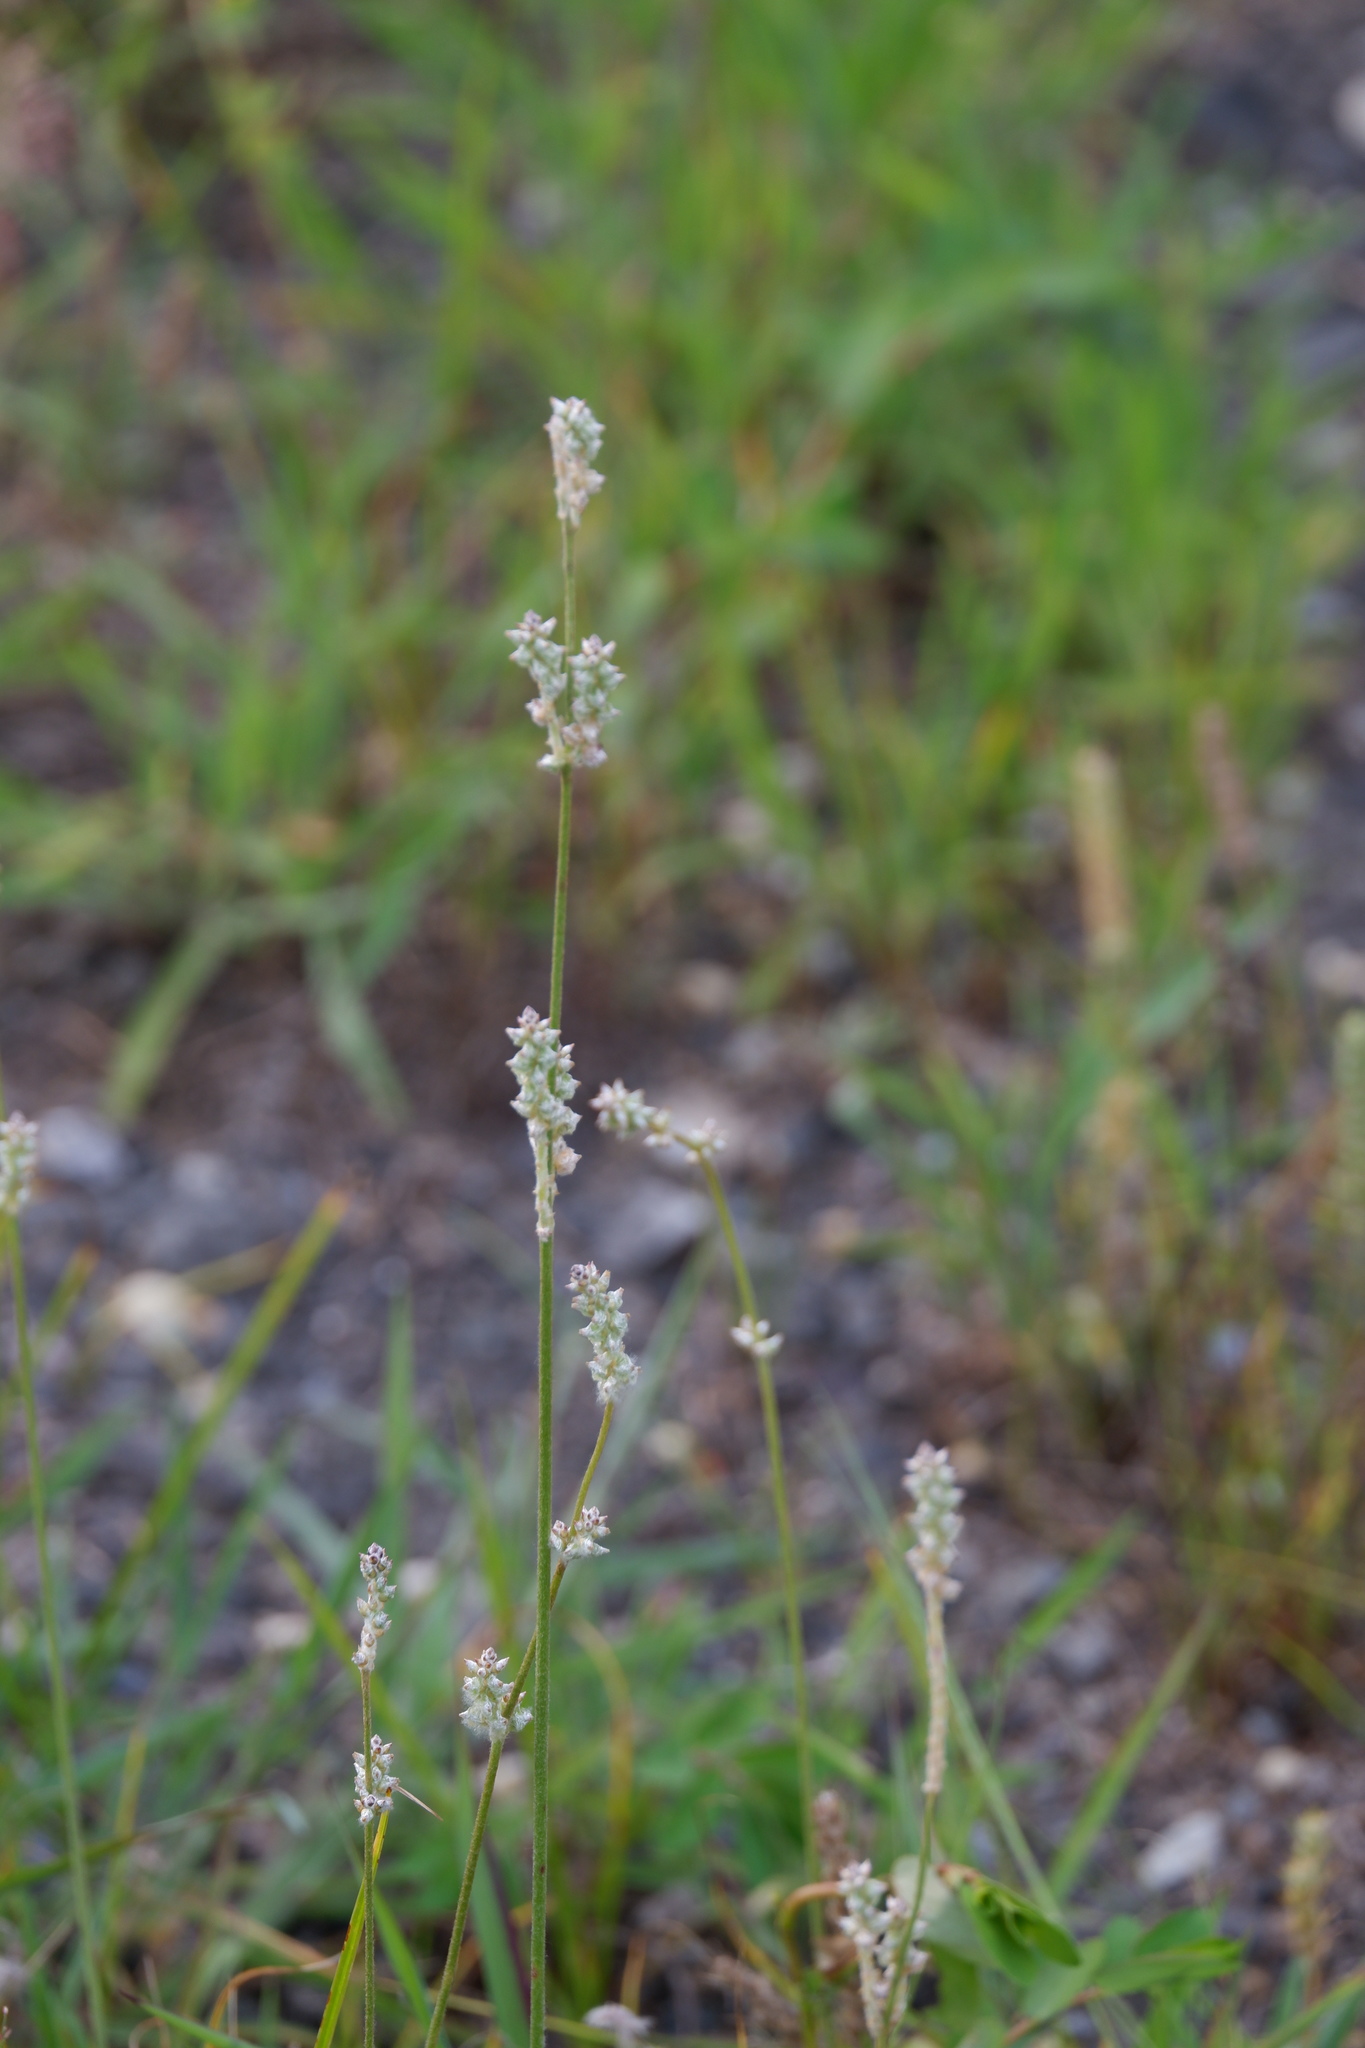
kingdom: Plantae
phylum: Tracheophyta
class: Magnoliopsida
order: Caryophyllales
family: Amaranthaceae
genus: Froelichia
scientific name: Froelichia gracilis
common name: Slender cottonweed
